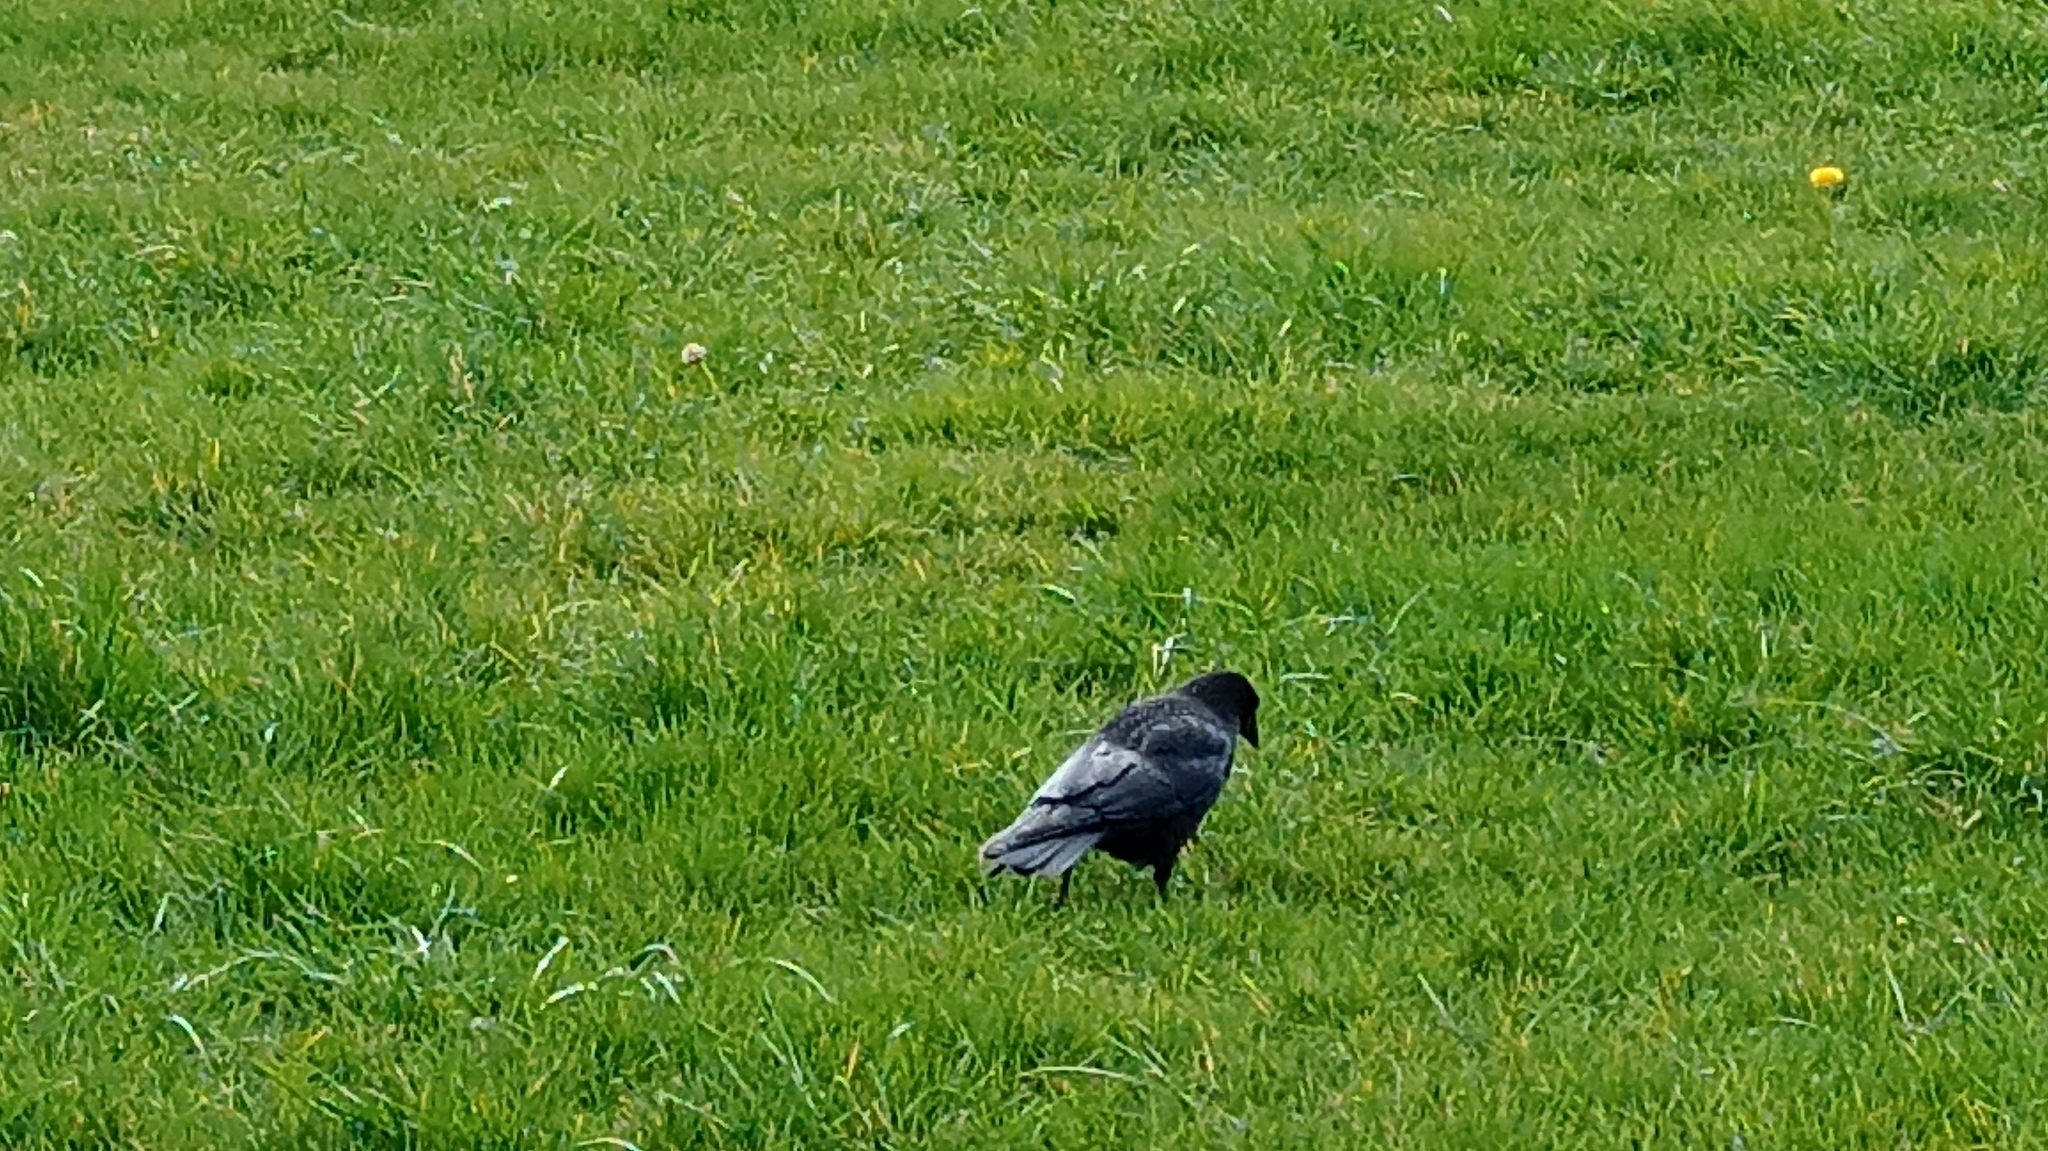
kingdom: Animalia
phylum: Chordata
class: Aves
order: Passeriformes
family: Corvidae
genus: Corvus
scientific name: Corvus corone
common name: Carrion crow
